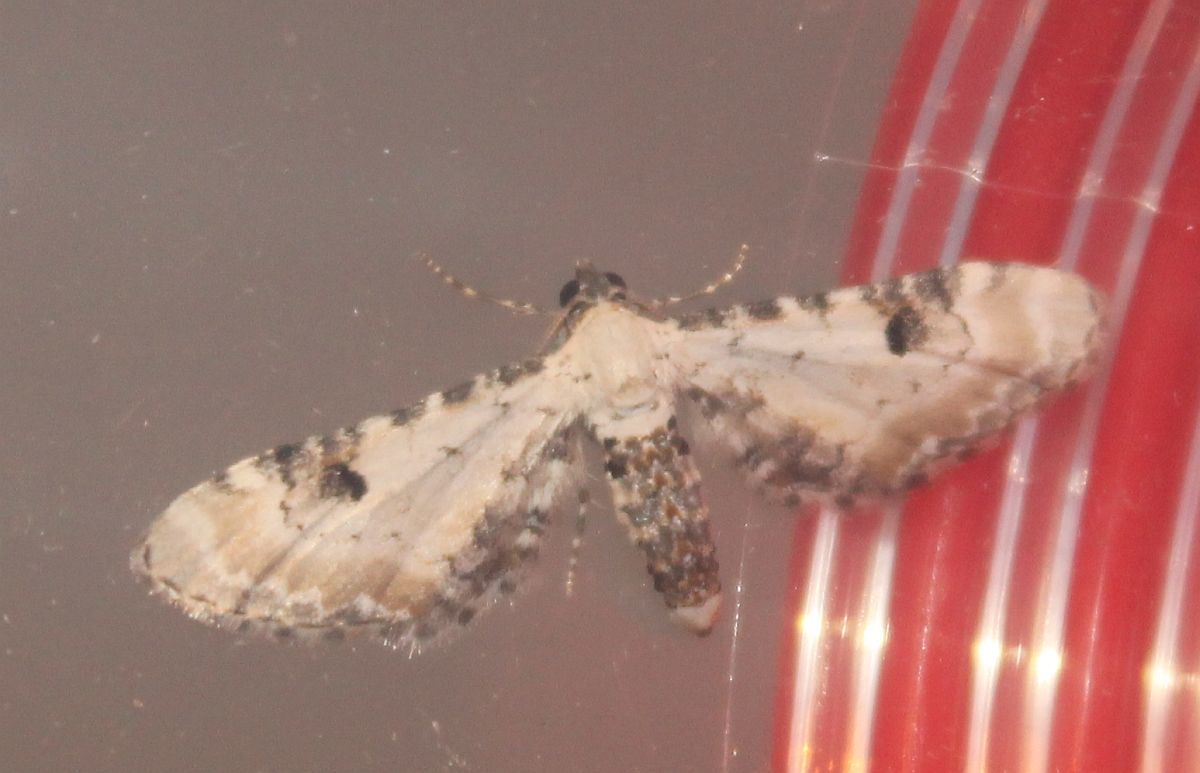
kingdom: Animalia
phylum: Arthropoda
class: Insecta
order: Lepidoptera
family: Geometridae
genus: Eupithecia
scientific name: Eupithecia centaureata
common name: Lime-speck pug
